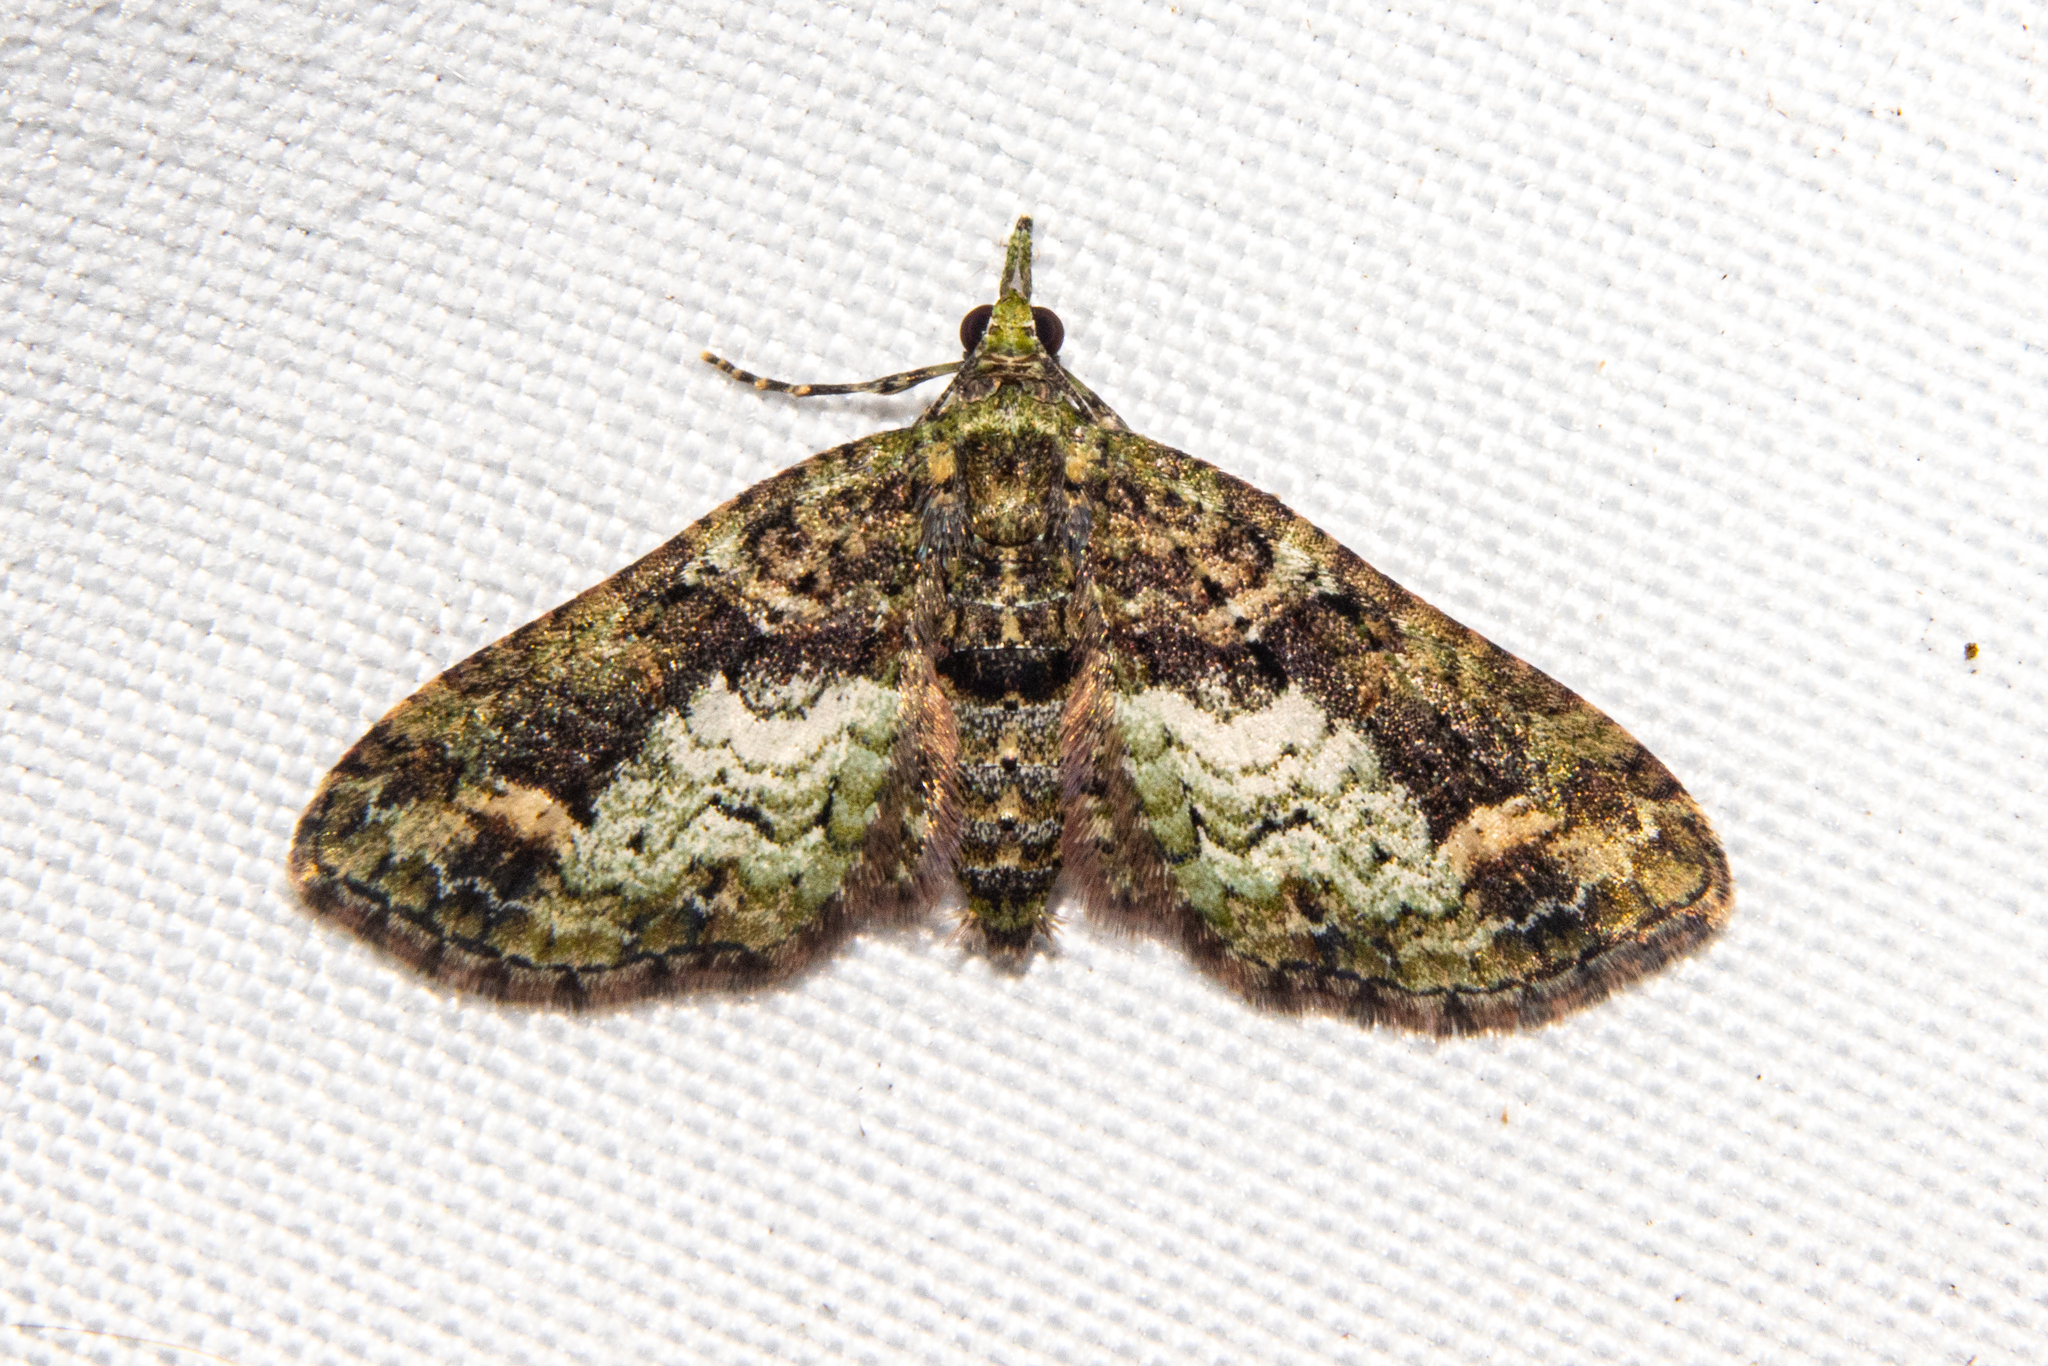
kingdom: Animalia
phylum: Arthropoda
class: Insecta
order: Lepidoptera
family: Geometridae
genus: Idaea
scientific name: Idaea mutanda
